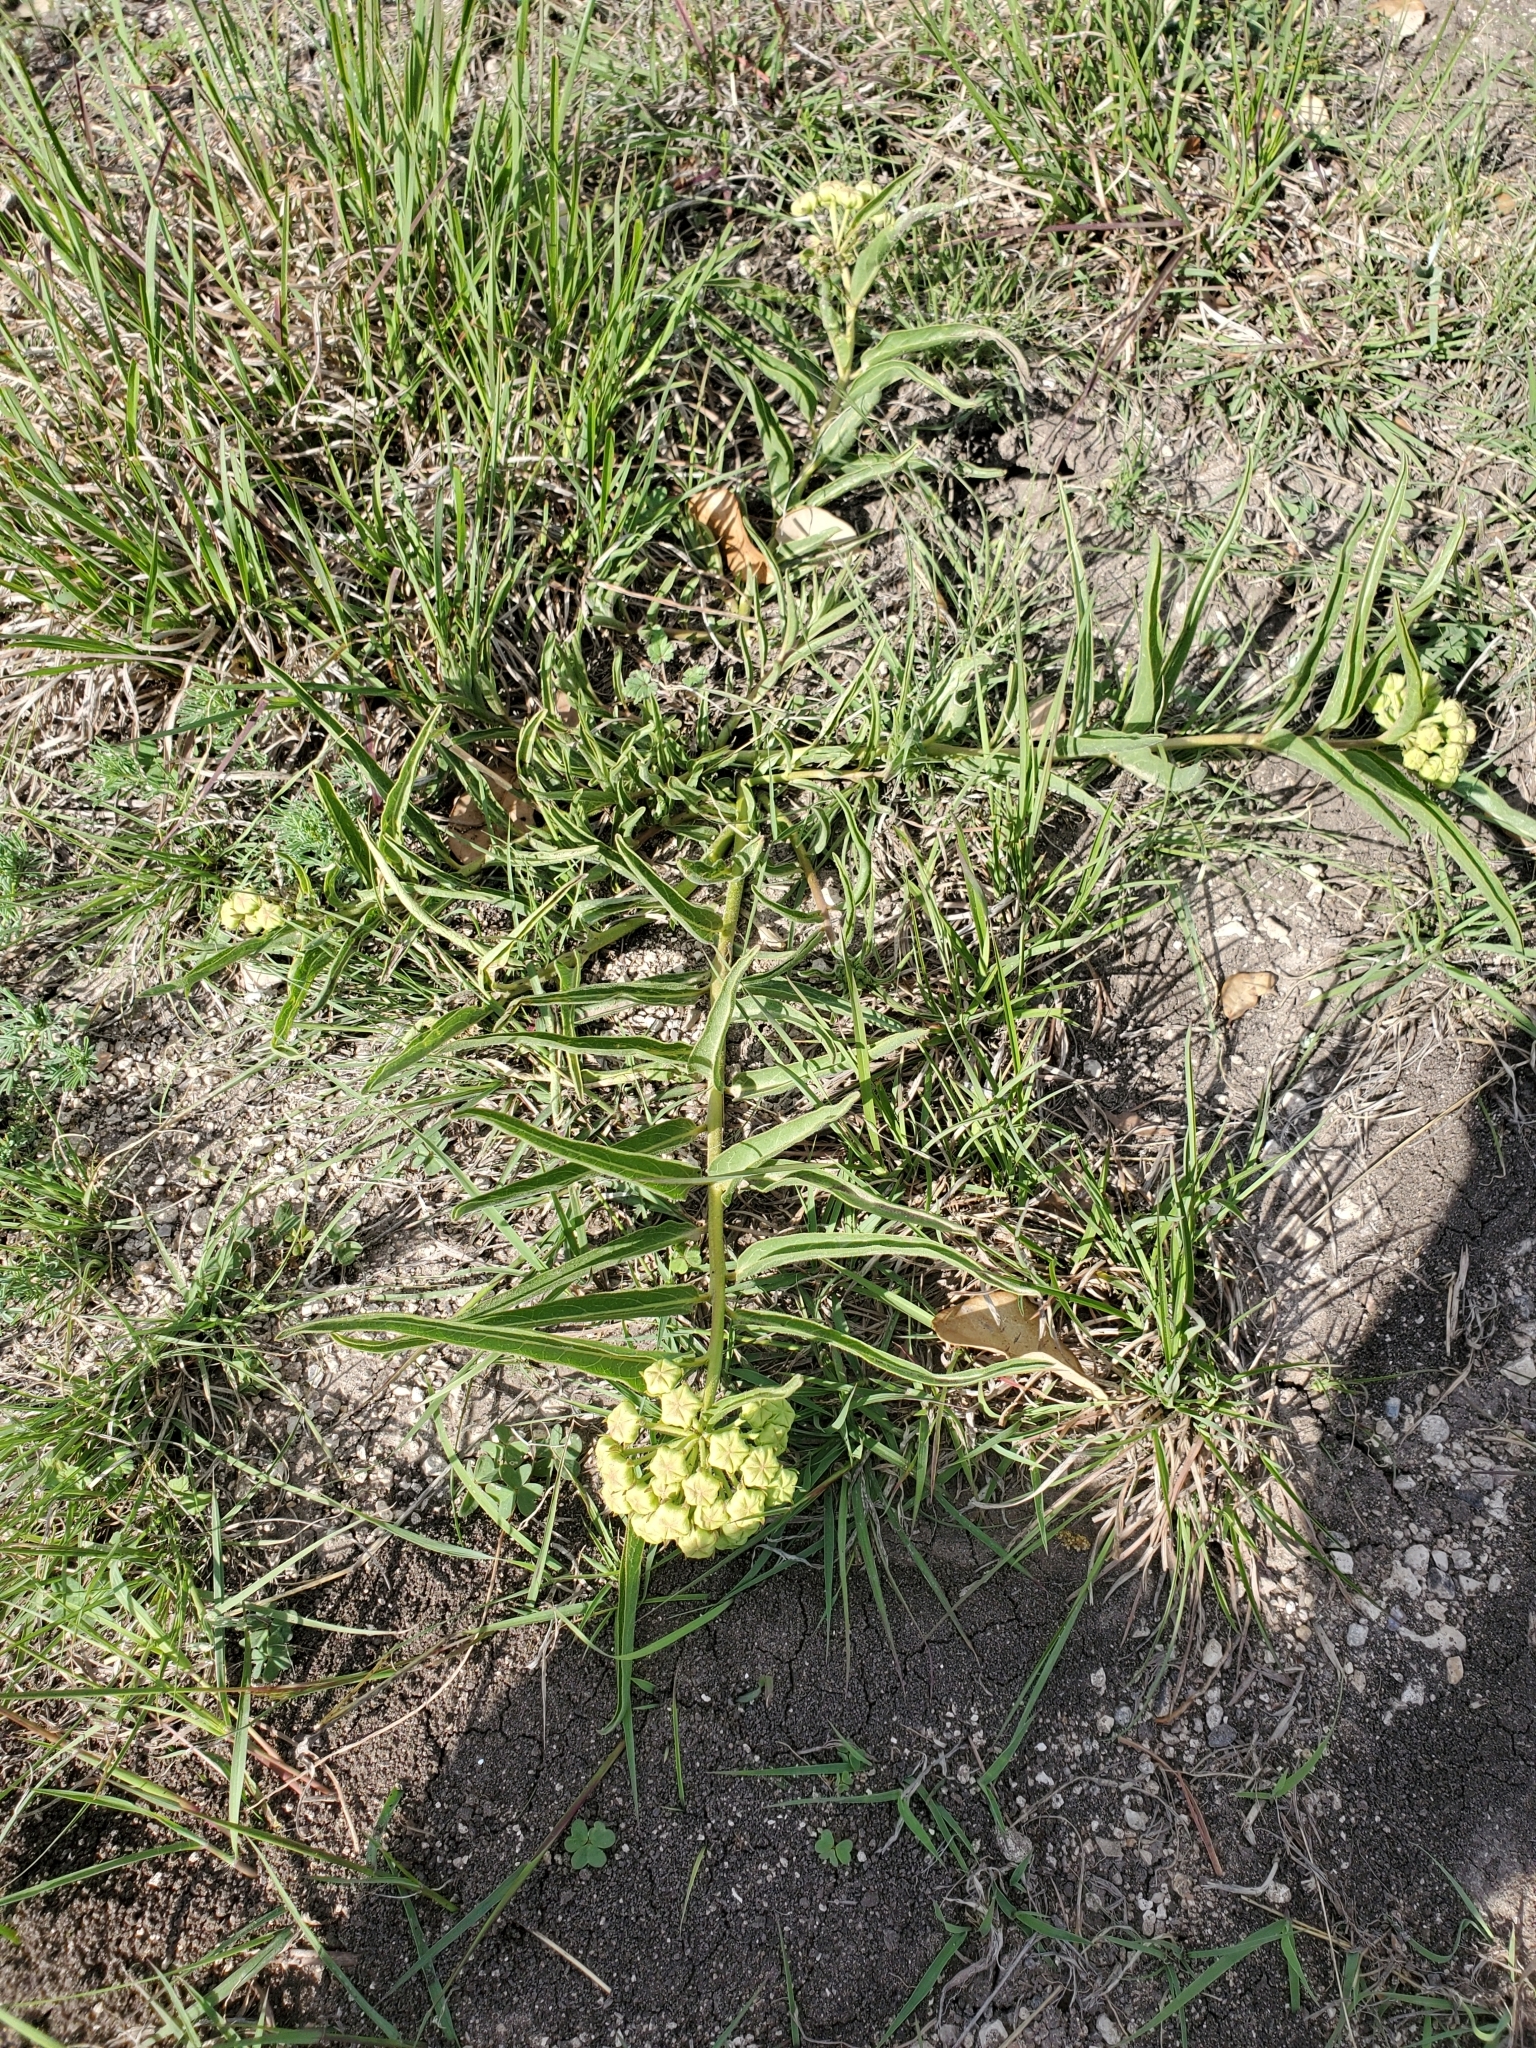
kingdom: Plantae
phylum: Tracheophyta
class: Magnoliopsida
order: Gentianales
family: Apocynaceae
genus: Asclepias
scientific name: Asclepias asperula
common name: Antelope horns
